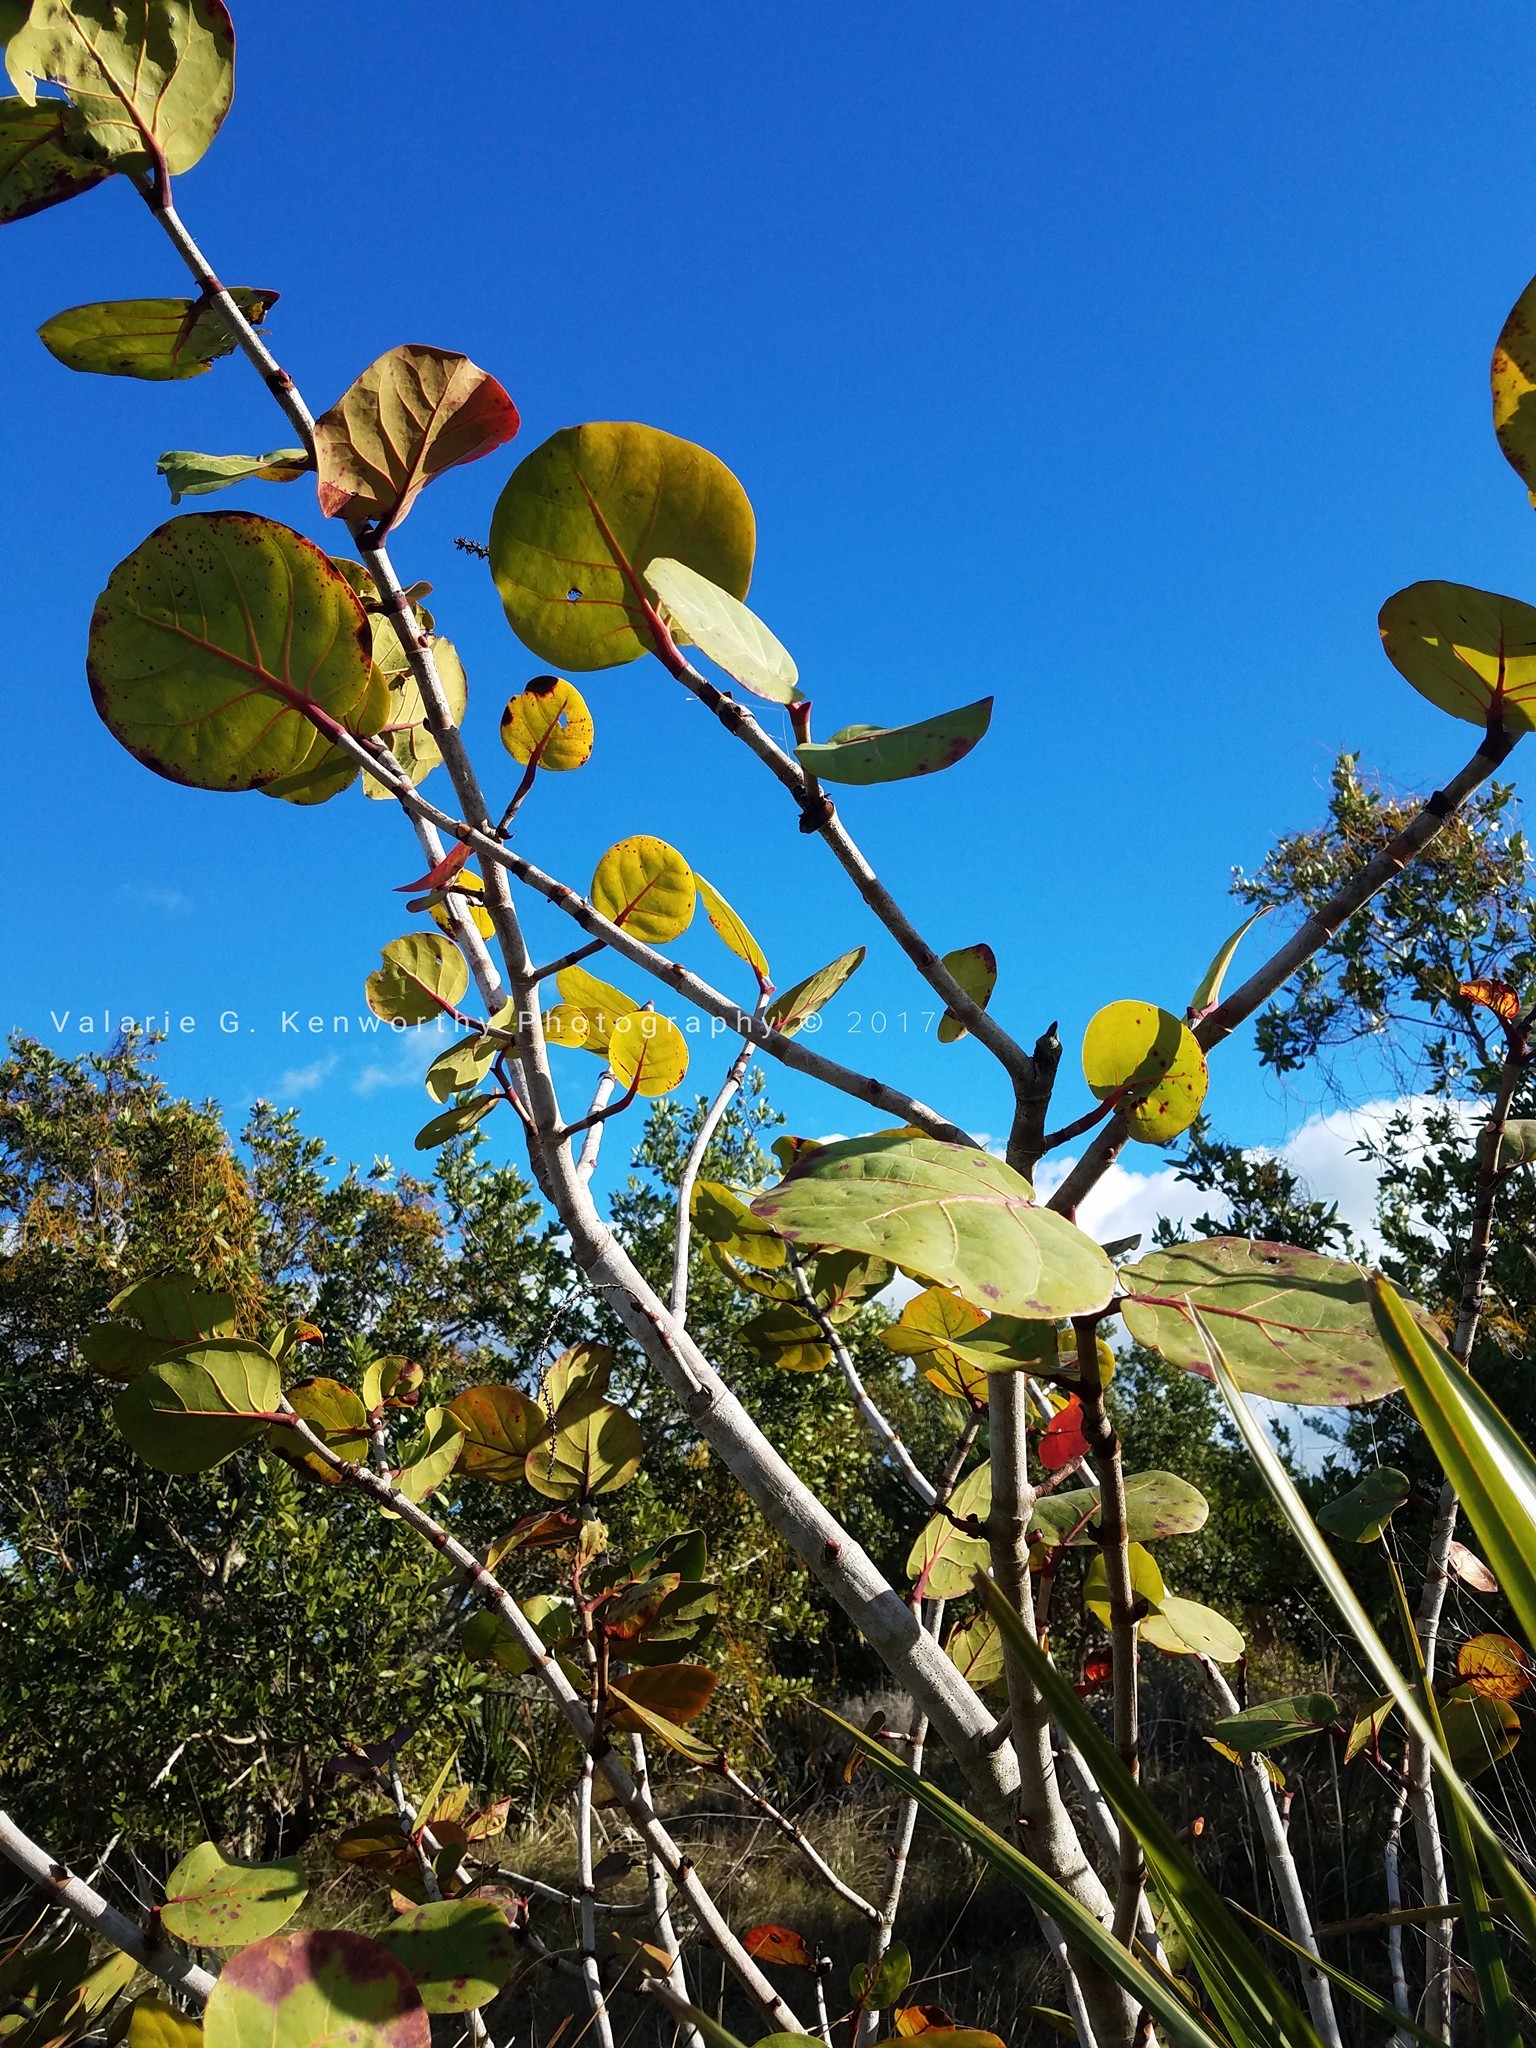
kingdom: Plantae
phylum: Tracheophyta
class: Magnoliopsida
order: Caryophyllales
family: Polygonaceae
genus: Coccoloba
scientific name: Coccoloba uvifera
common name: Seagrape
